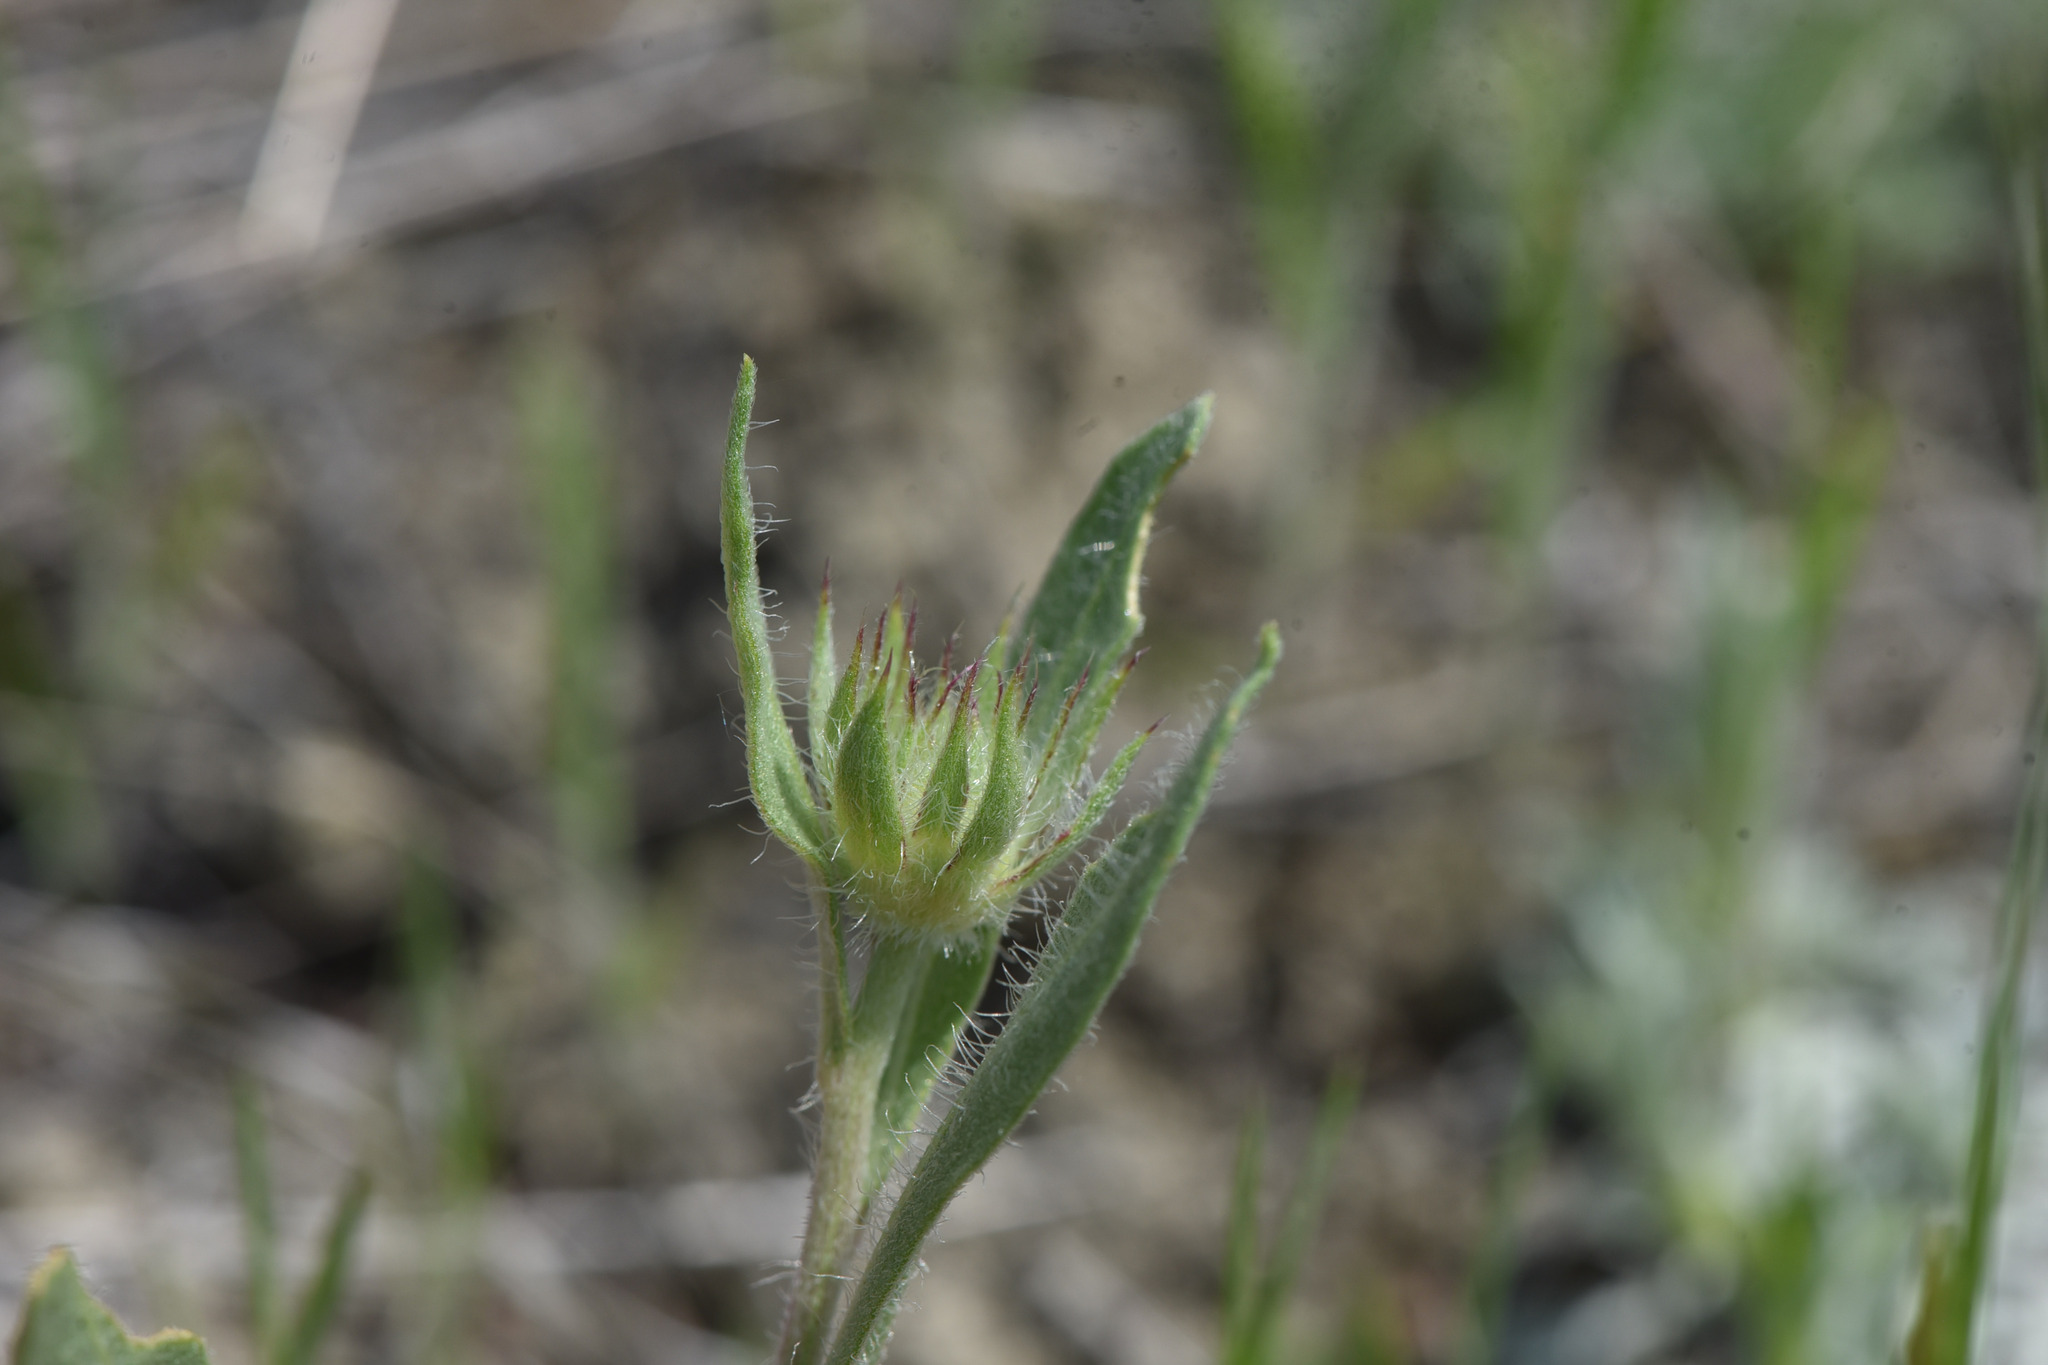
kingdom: Plantae
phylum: Tracheophyta
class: Magnoliopsida
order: Asterales
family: Asteraceae
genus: Gaillardia
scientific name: Gaillardia aristata
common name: Blanket-flower
